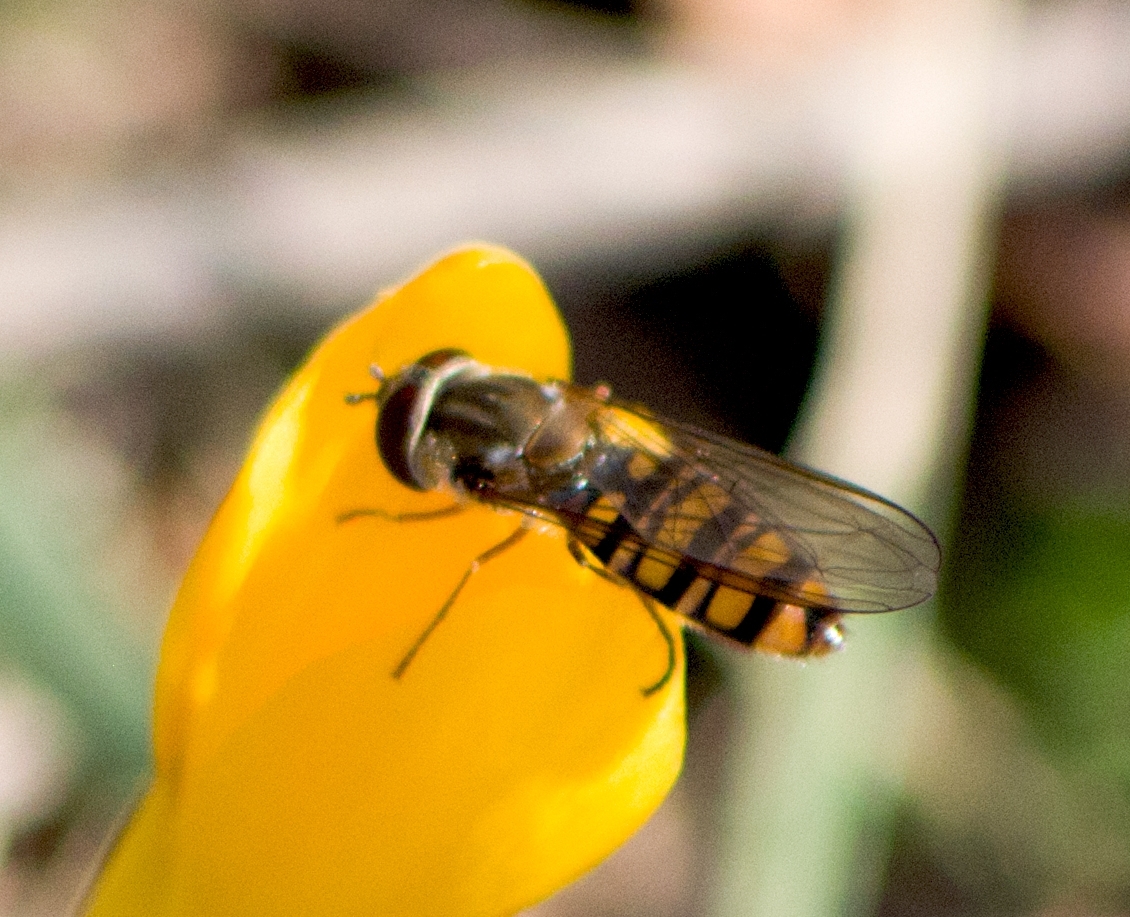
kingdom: Animalia
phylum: Arthropoda
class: Insecta
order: Diptera
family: Syrphidae
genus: Episyrphus
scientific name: Episyrphus balteatus
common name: Marmalade hoverfly
